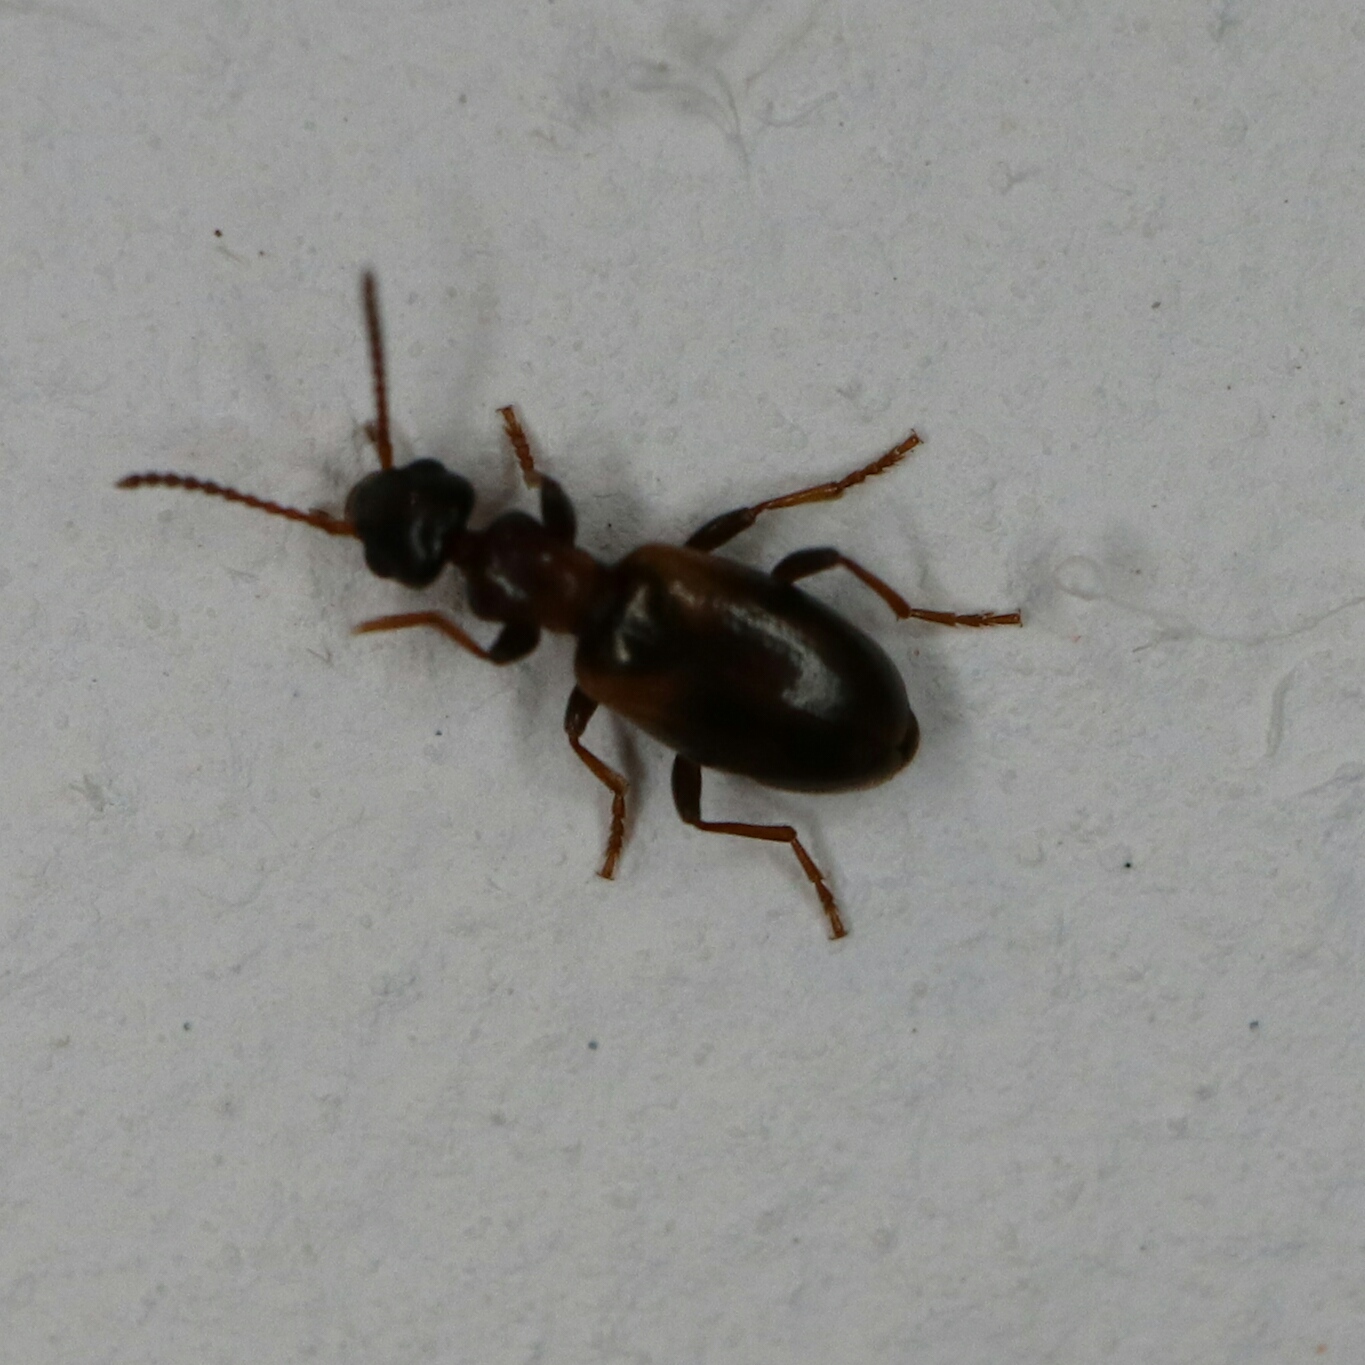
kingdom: Animalia
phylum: Arthropoda
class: Insecta
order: Coleoptera
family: Anthicidae
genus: Omonadus
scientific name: Omonadus floralis
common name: Narrownecked grain beetle
